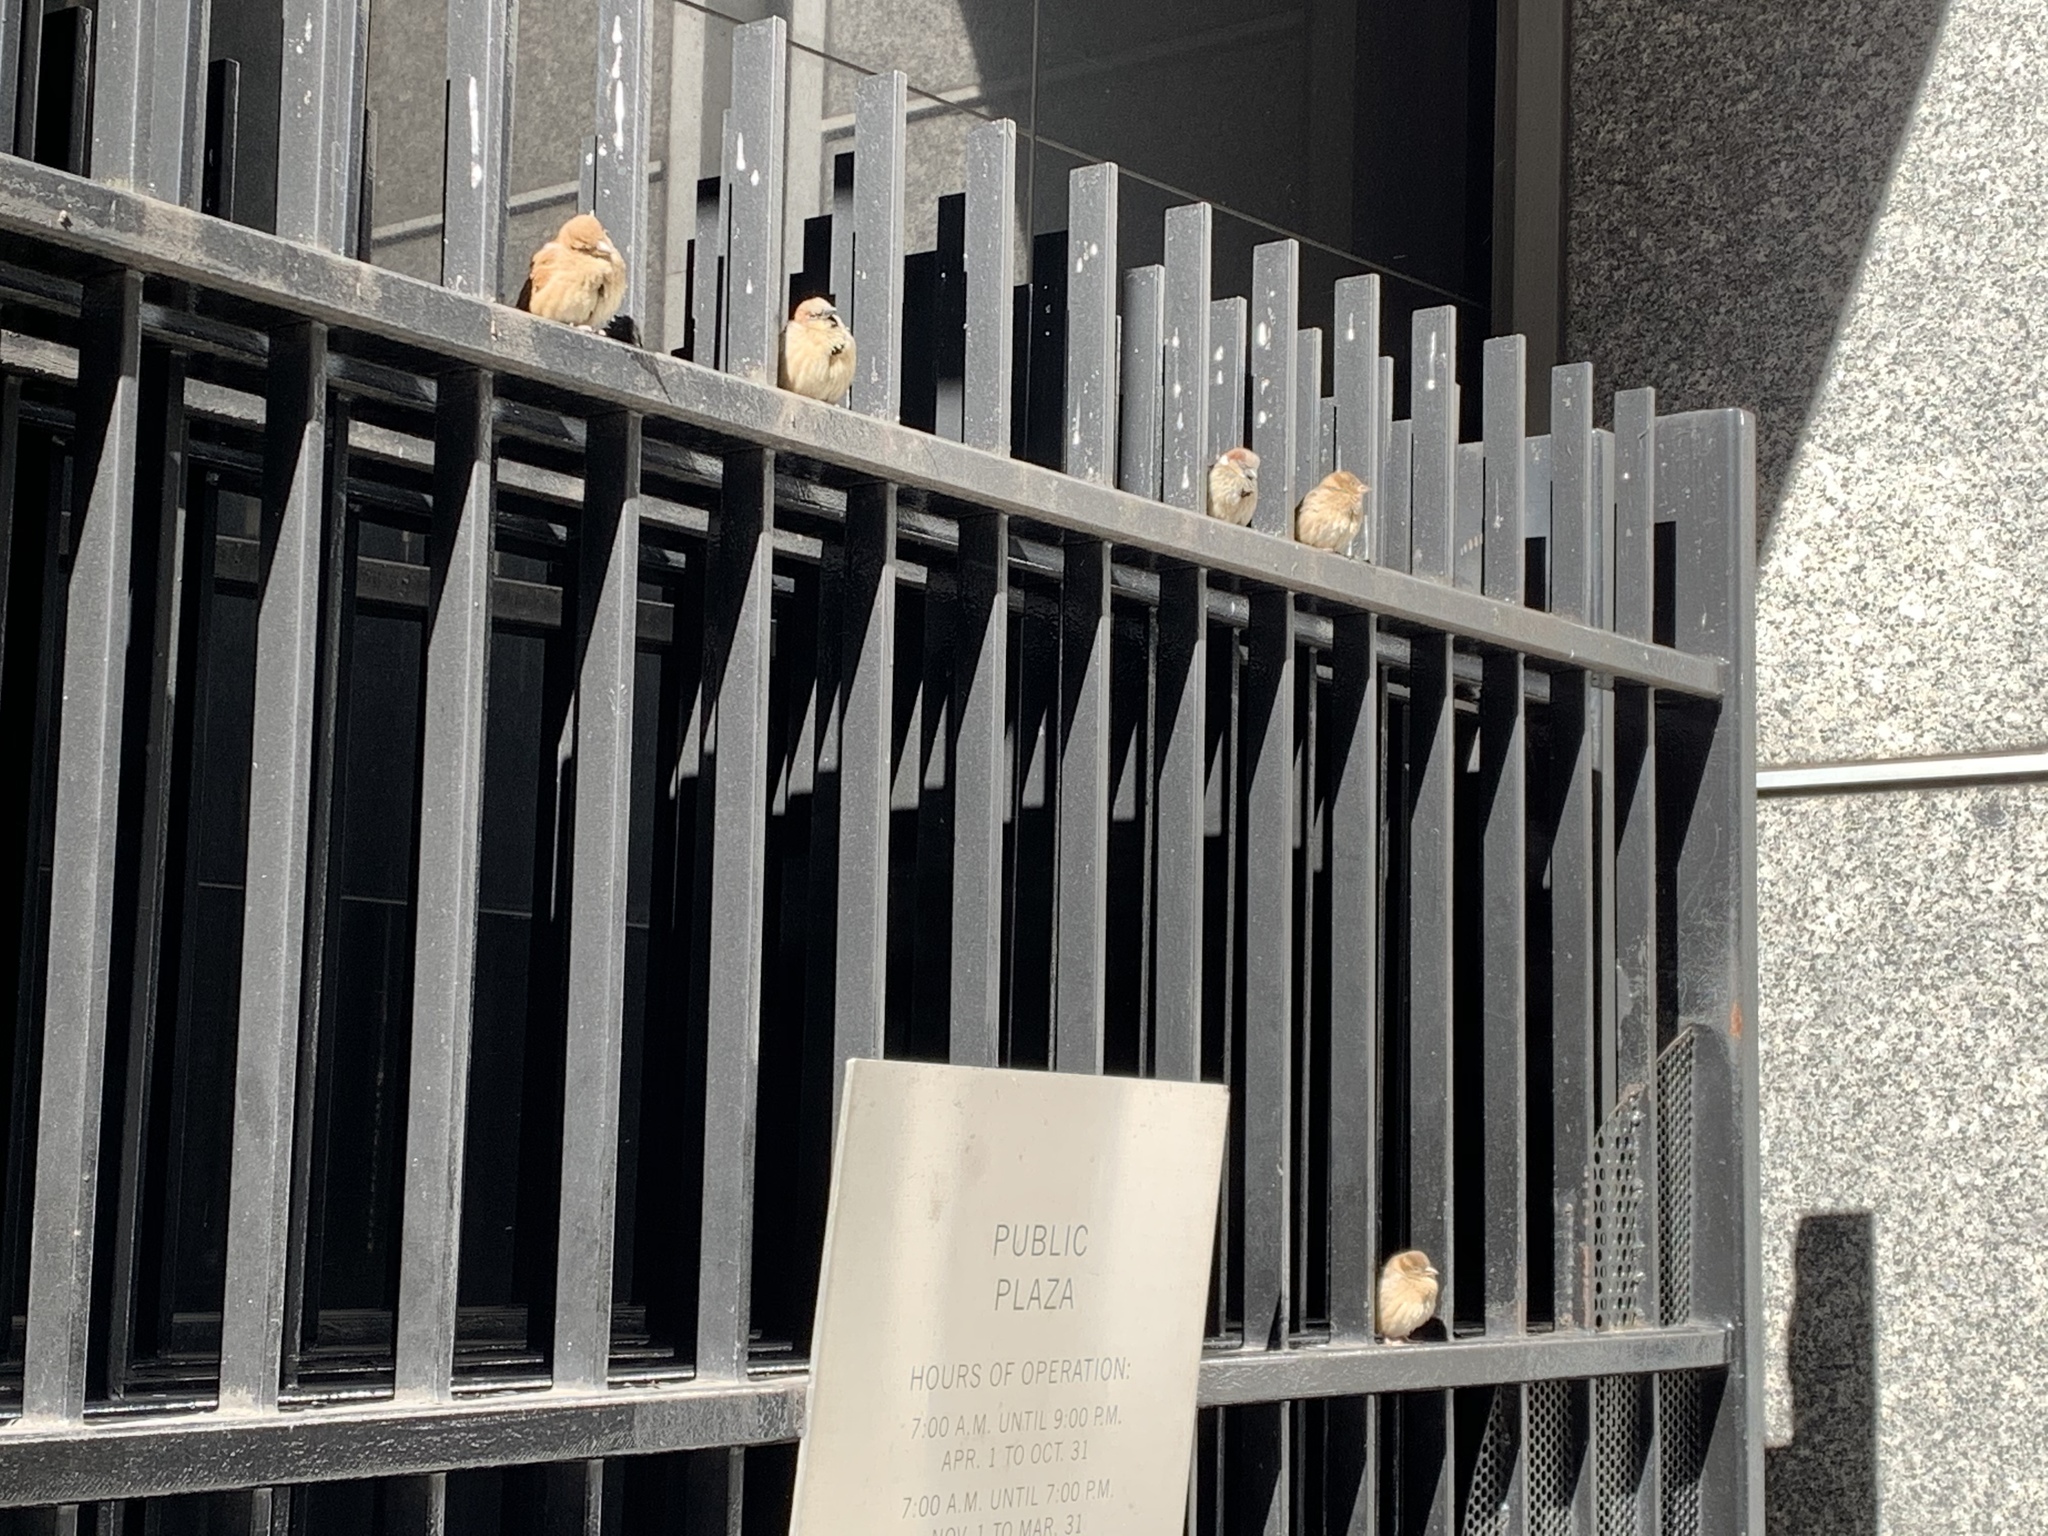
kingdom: Animalia
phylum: Chordata
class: Aves
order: Passeriformes
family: Passeridae
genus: Passer
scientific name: Passer domesticus
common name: House sparrow
